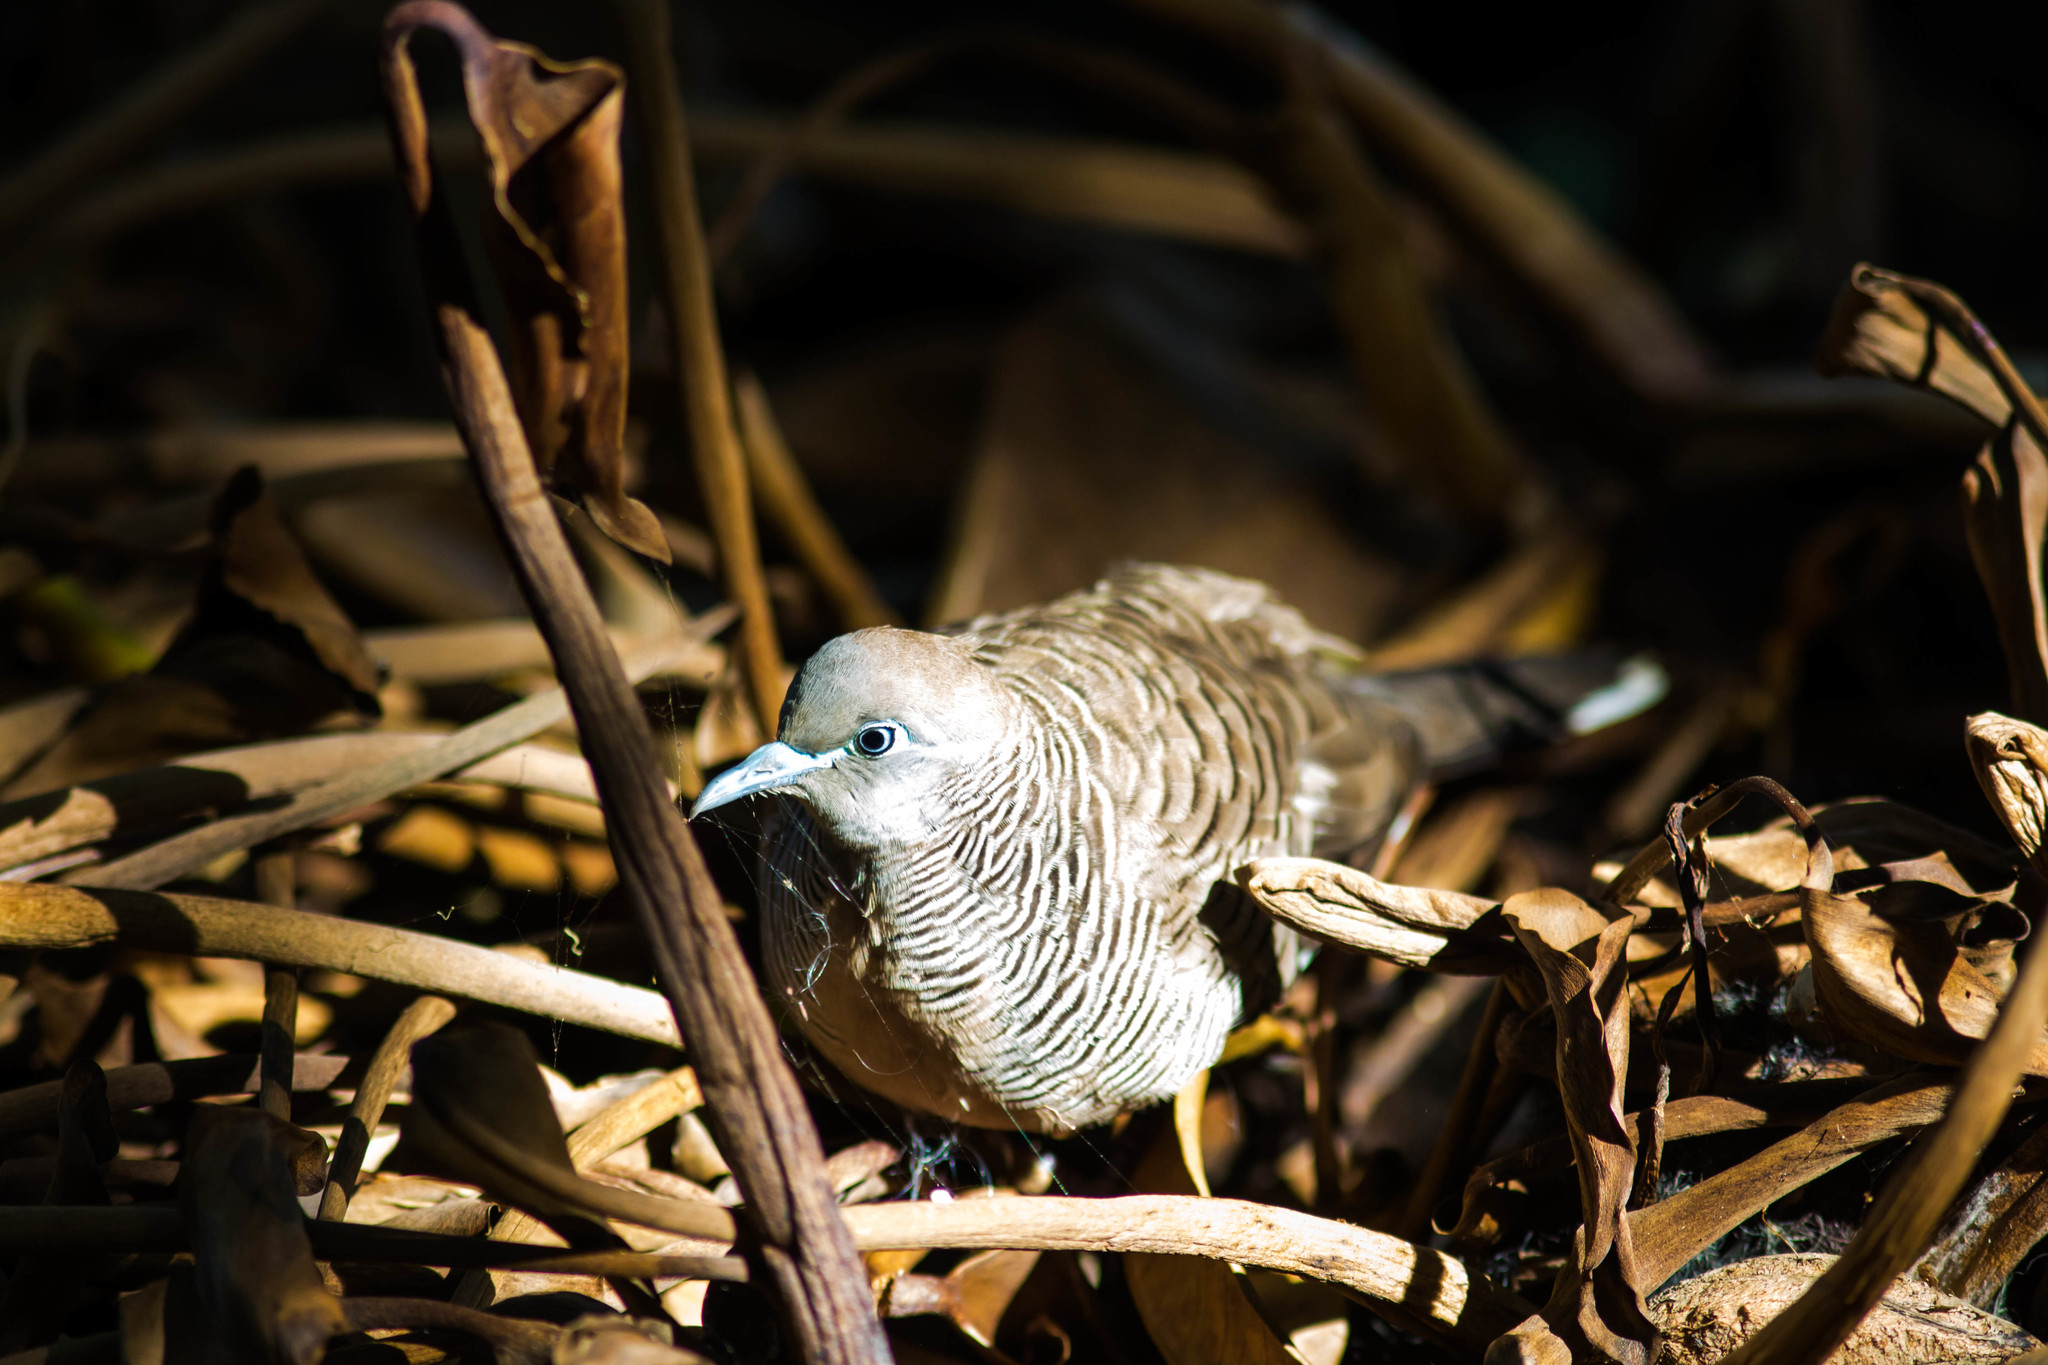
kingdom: Animalia
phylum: Chordata
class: Aves
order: Columbiformes
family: Columbidae
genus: Geopelia
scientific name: Geopelia striata
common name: Zebra dove
